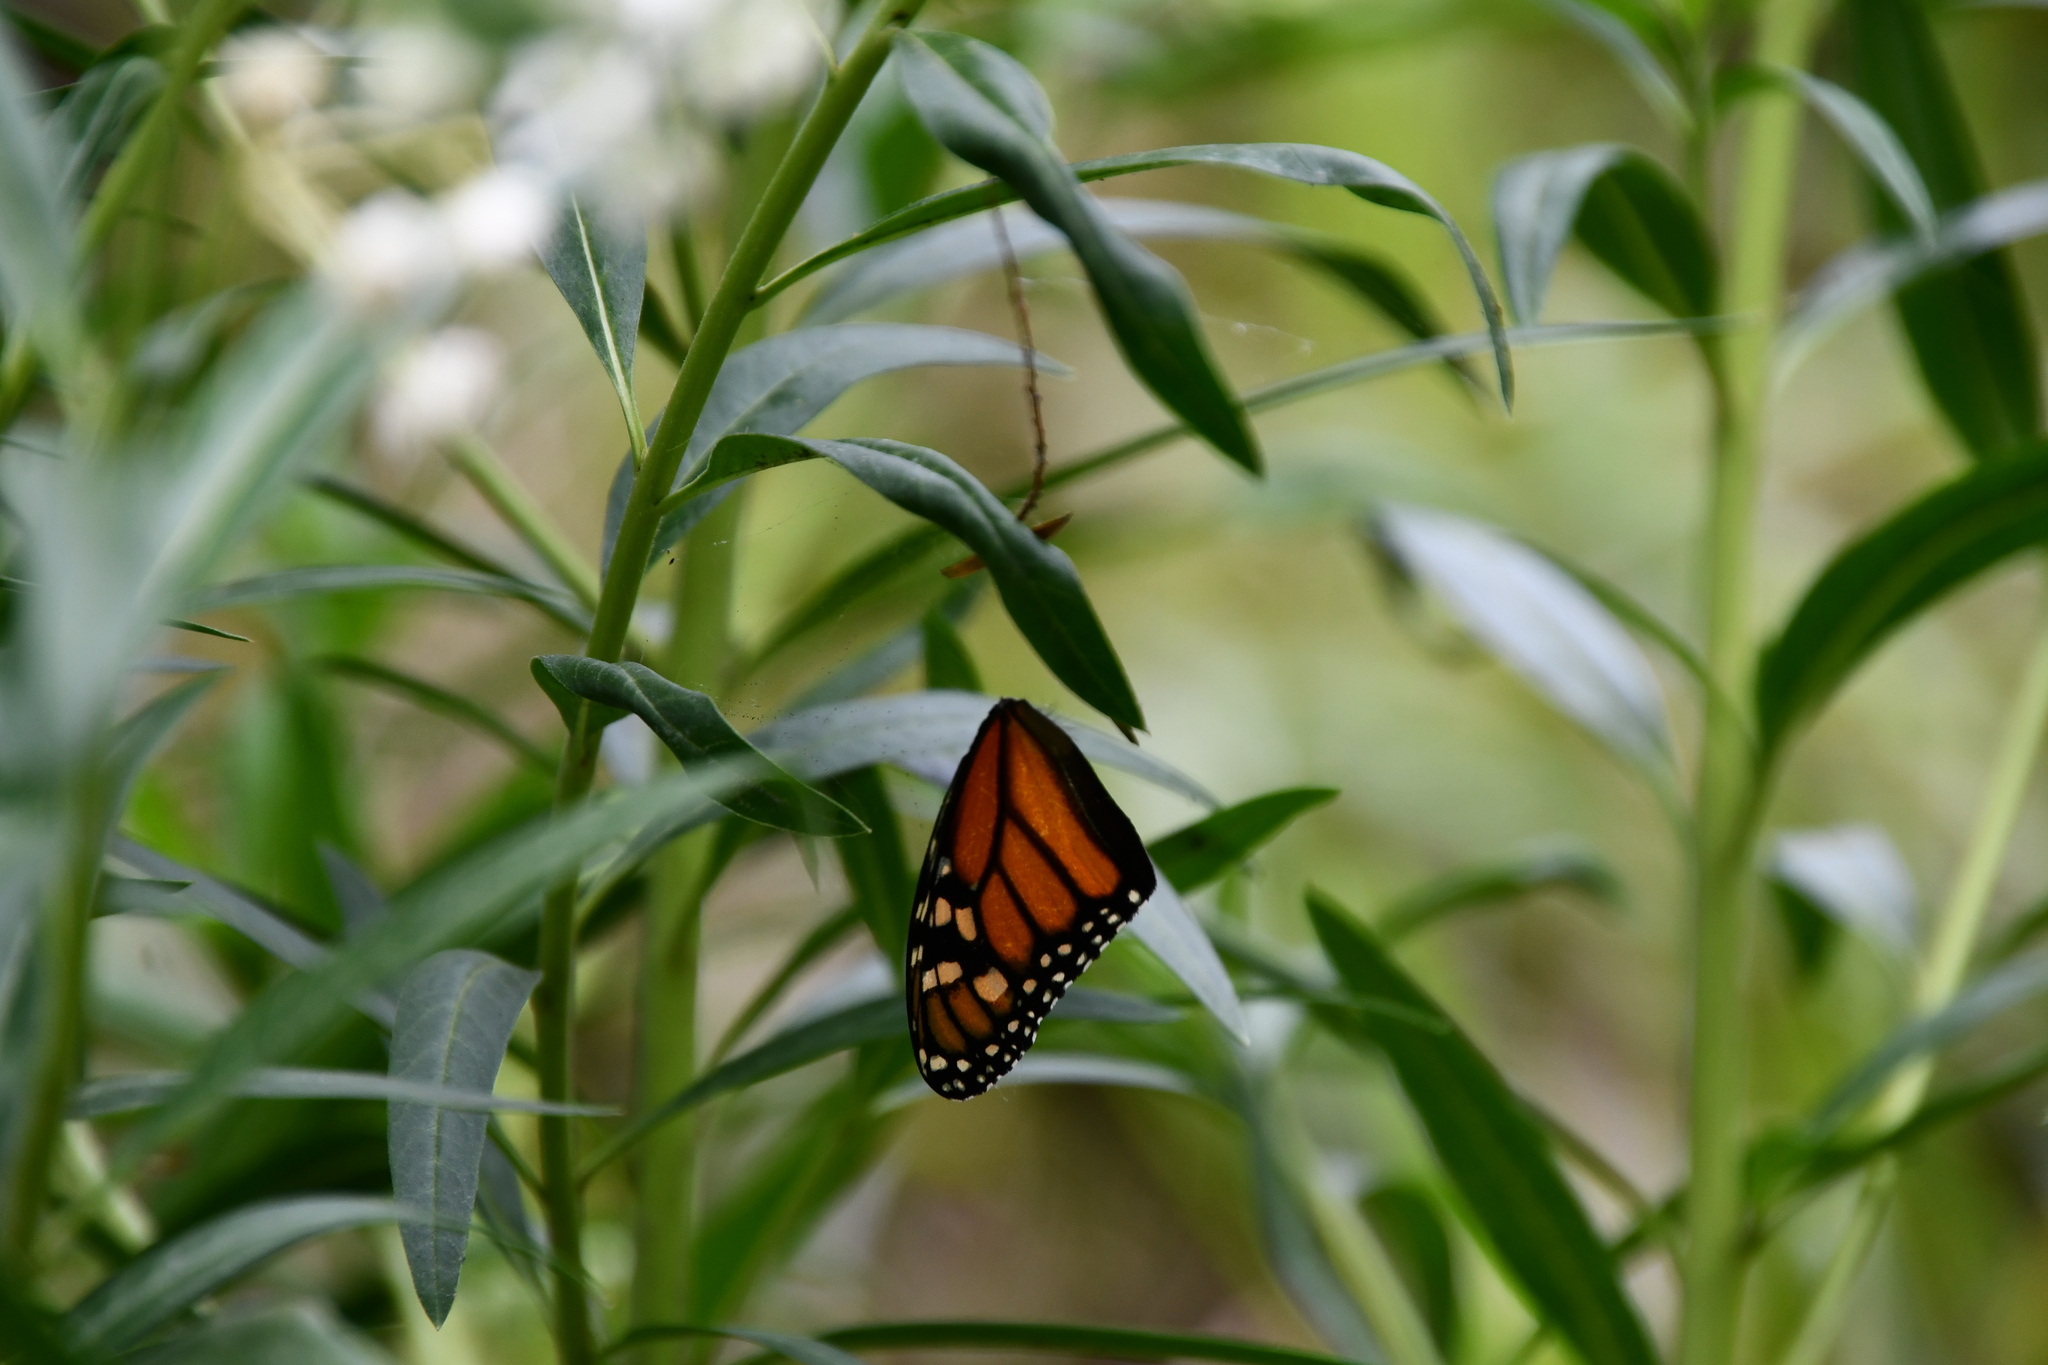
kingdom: Animalia
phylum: Arthropoda
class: Insecta
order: Lepidoptera
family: Nymphalidae
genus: Danaus
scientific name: Danaus plexippus
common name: Monarch
